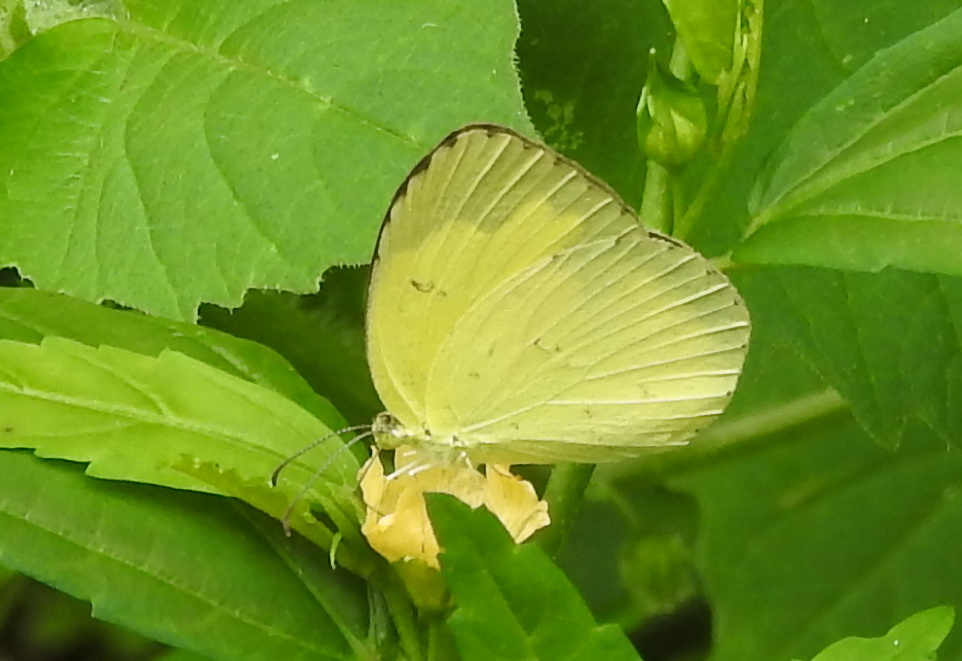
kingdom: Animalia
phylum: Arthropoda
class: Insecta
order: Lepidoptera
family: Pieridae
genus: Eurema
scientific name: Eurema hecabe
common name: Pale grass yellow
